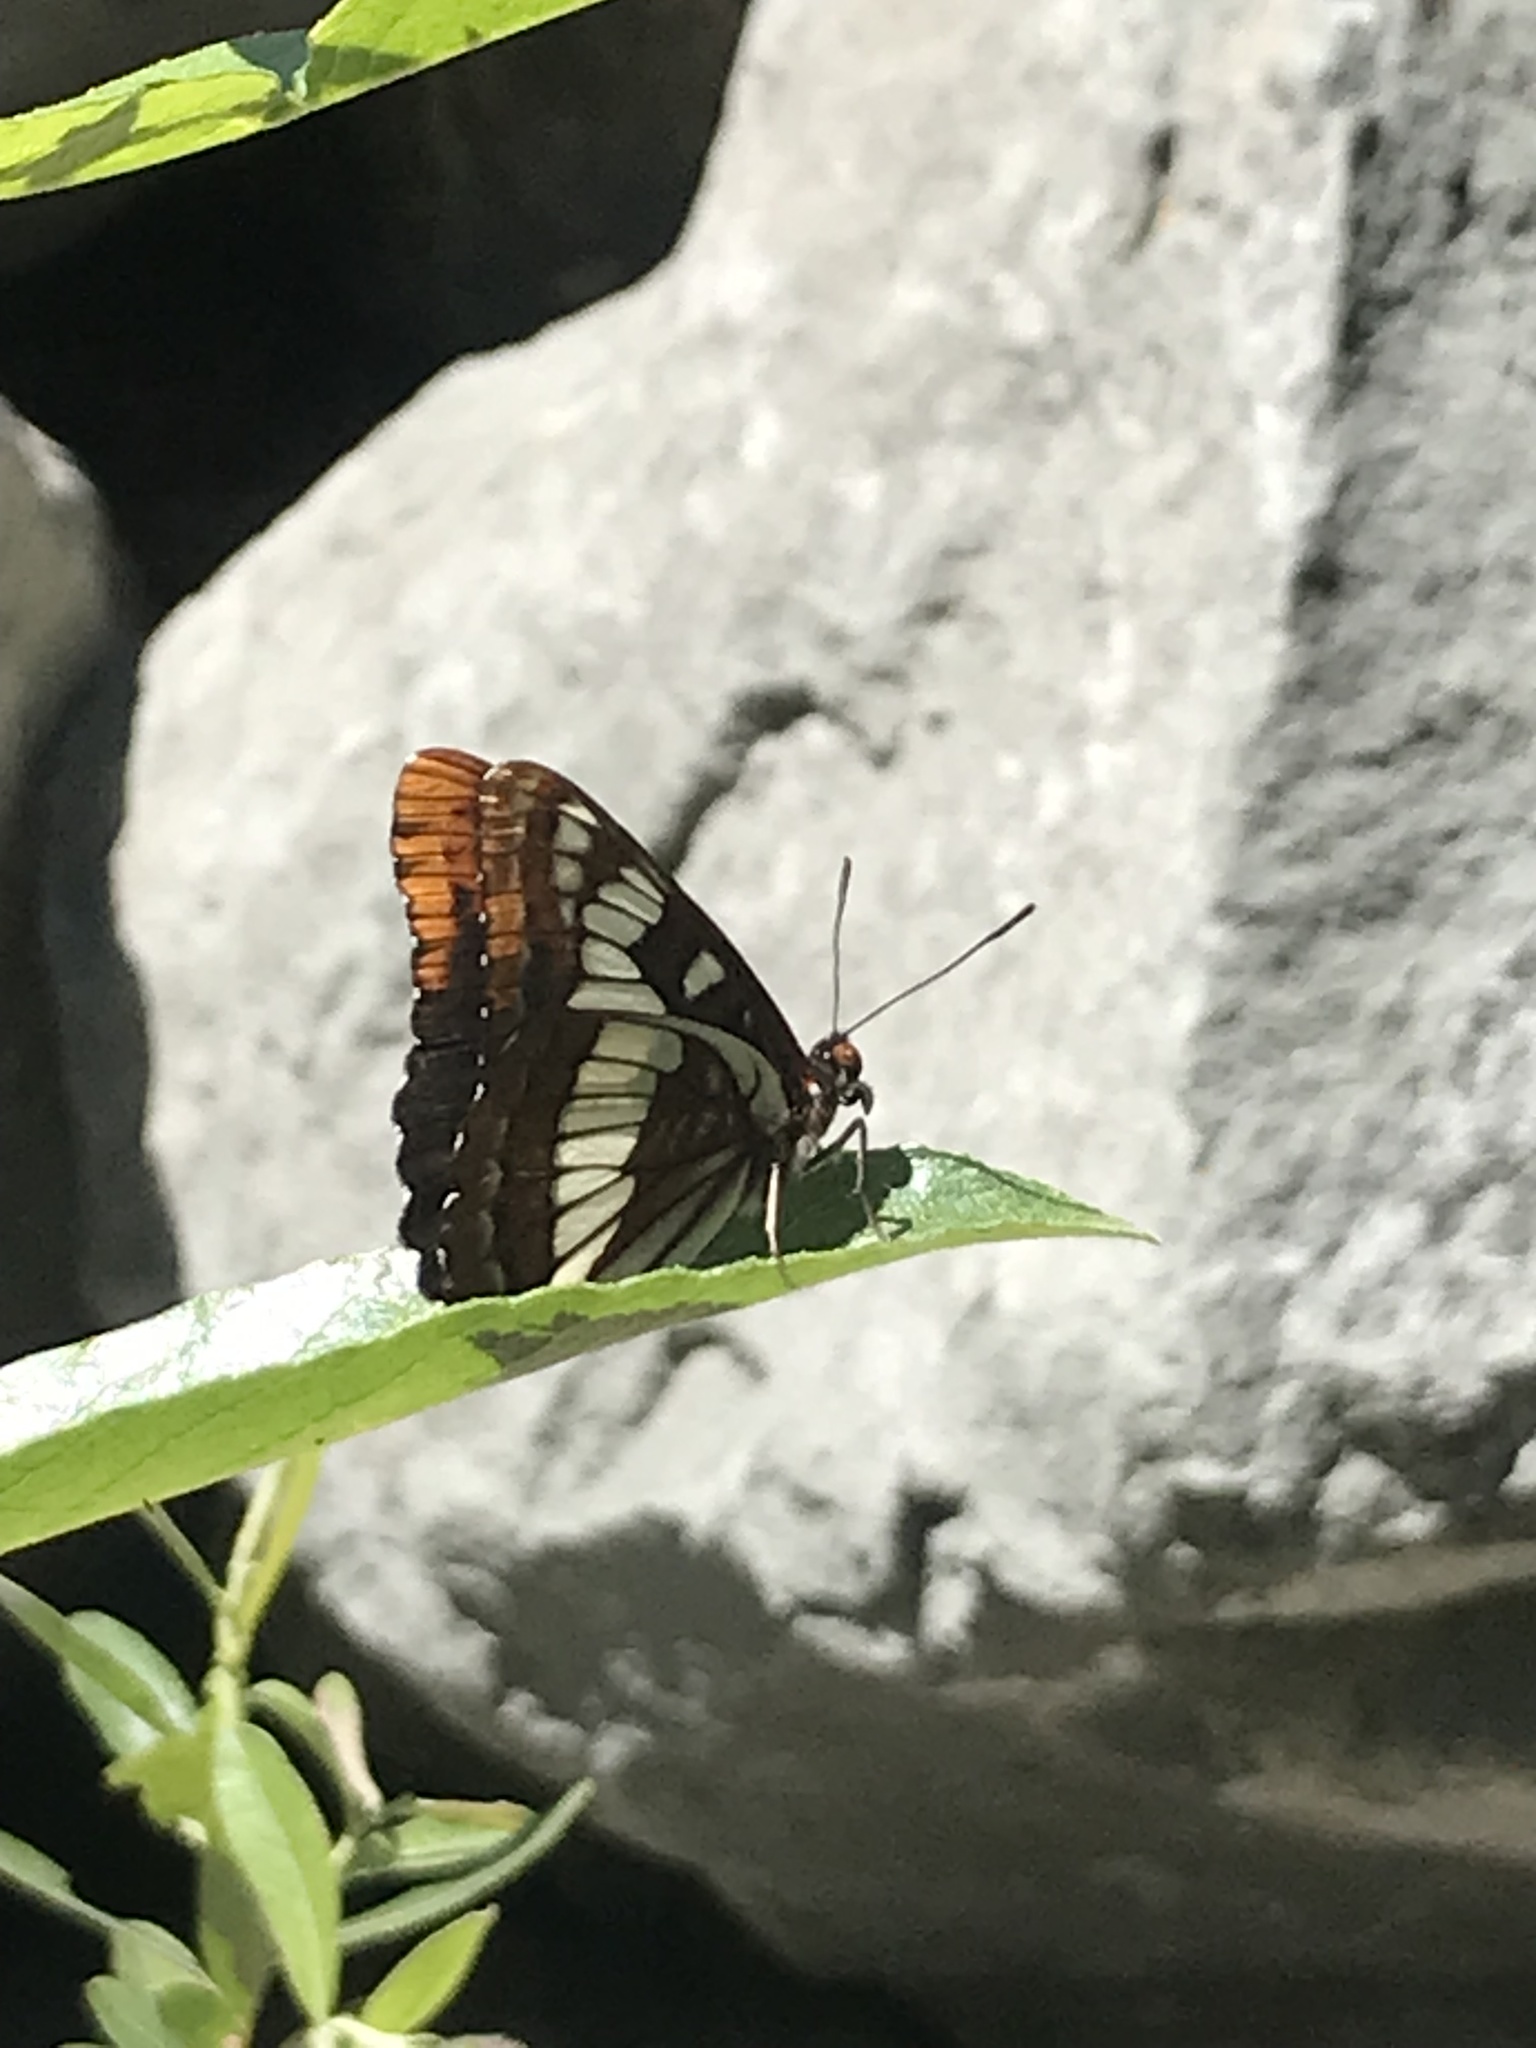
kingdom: Animalia
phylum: Arthropoda
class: Insecta
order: Lepidoptera
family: Nymphalidae
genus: Limenitis
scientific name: Limenitis lorquini
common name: Lorquin's admiral
